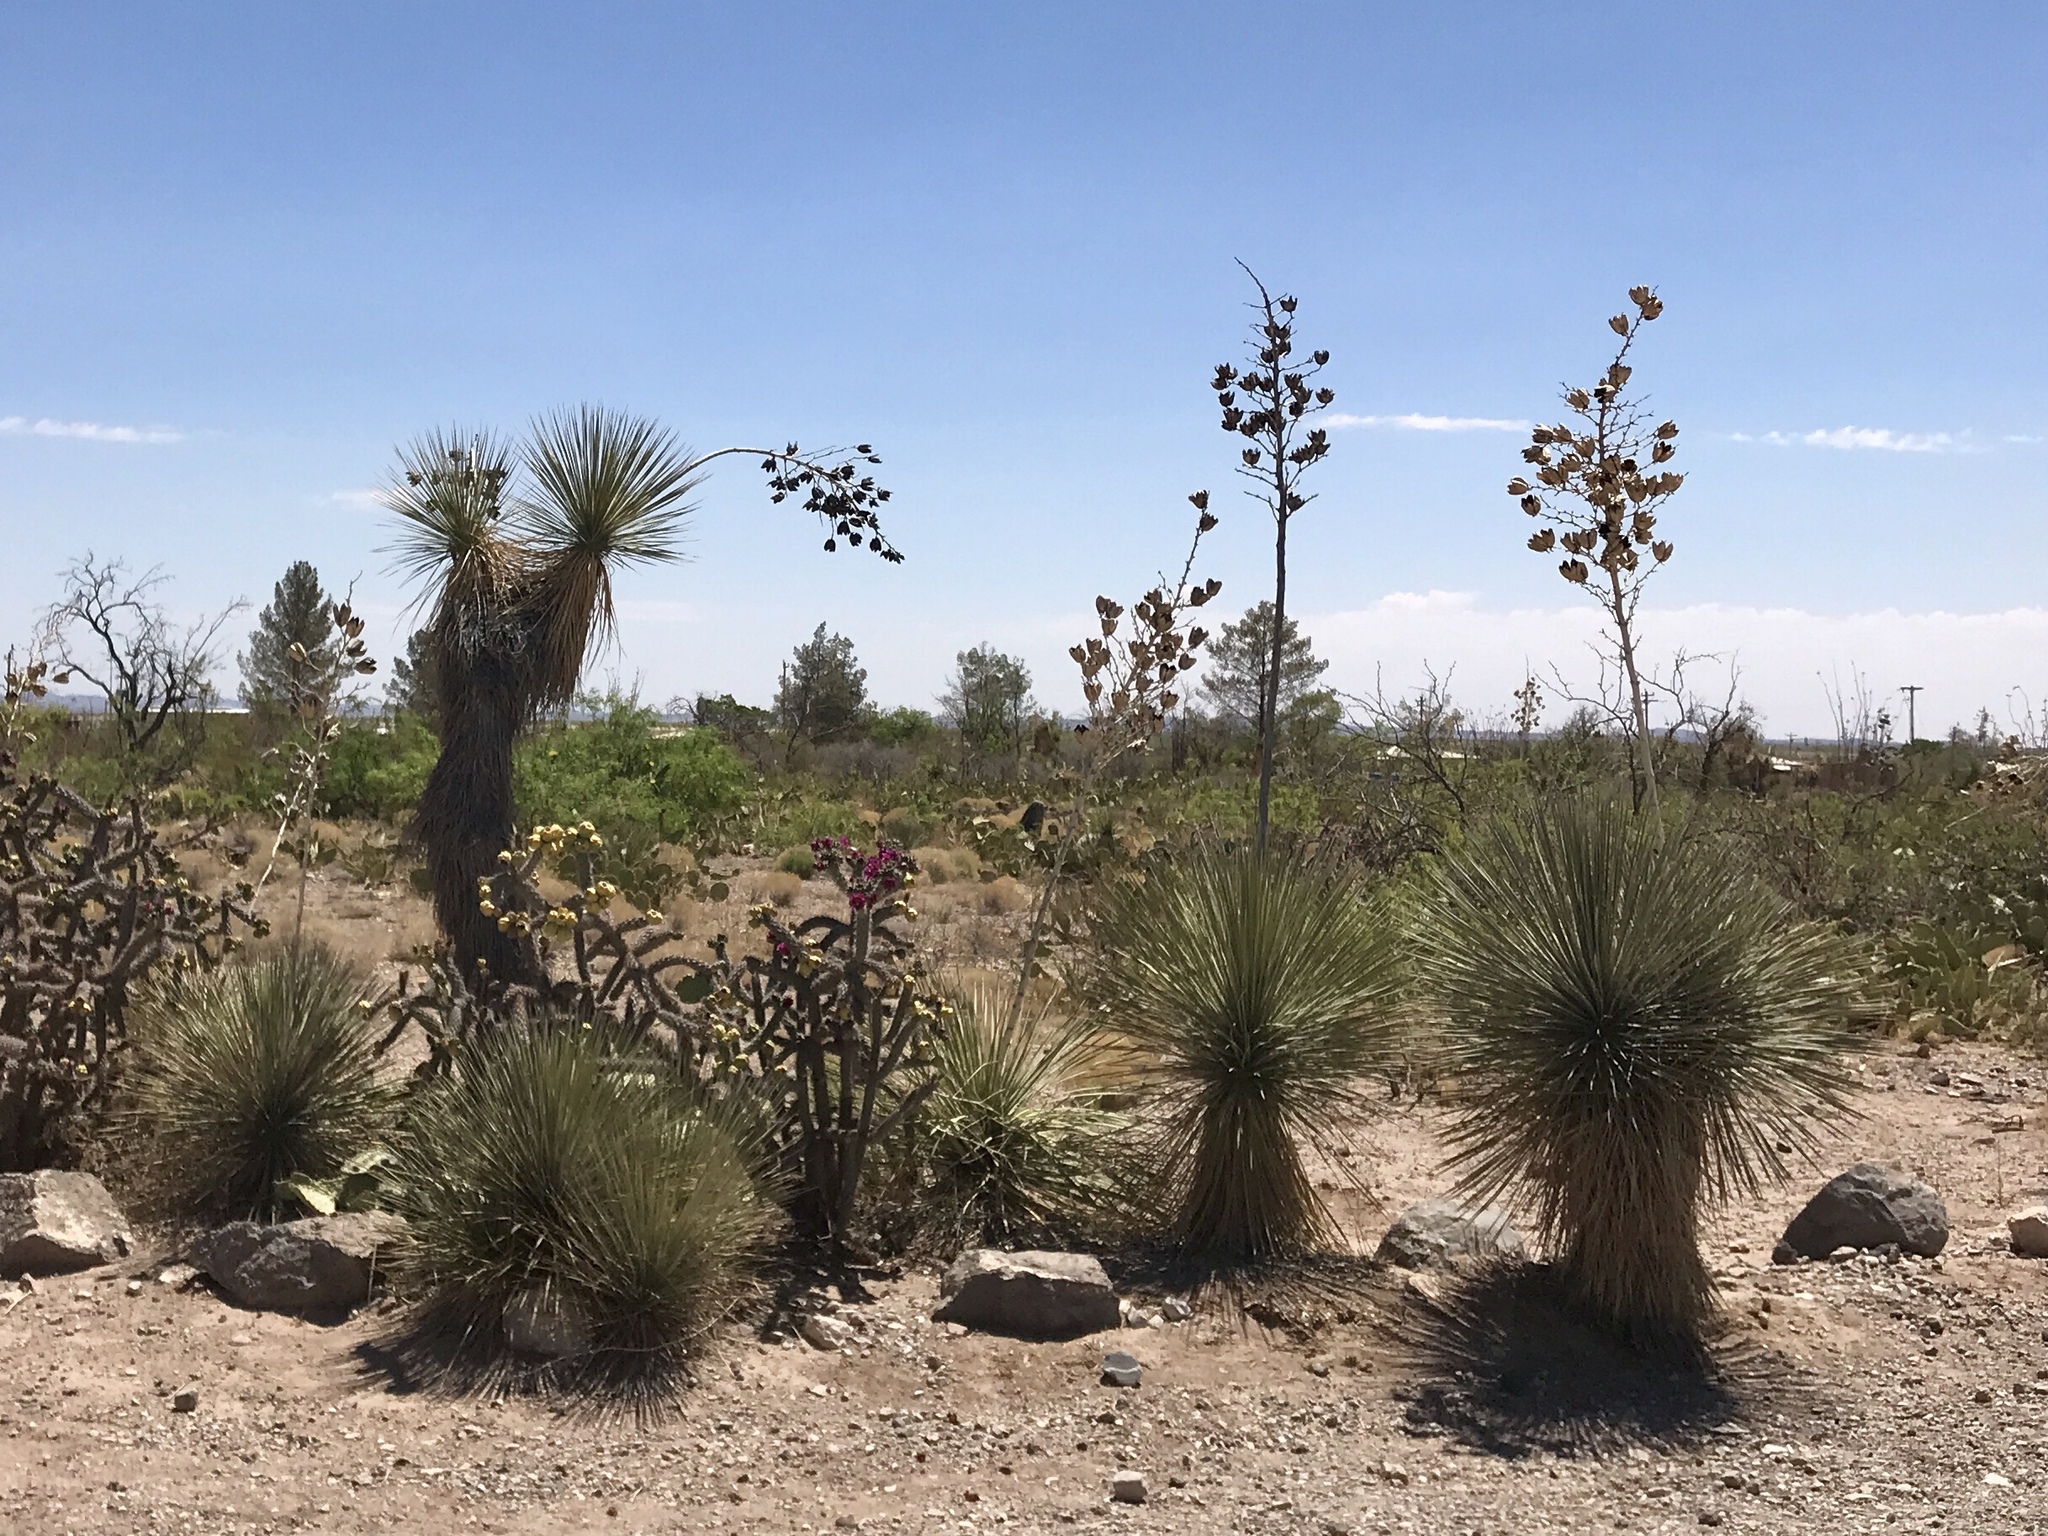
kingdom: Plantae
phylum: Tracheophyta
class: Liliopsida
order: Asparagales
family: Asparagaceae
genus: Yucca
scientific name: Yucca elata
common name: Palmella
